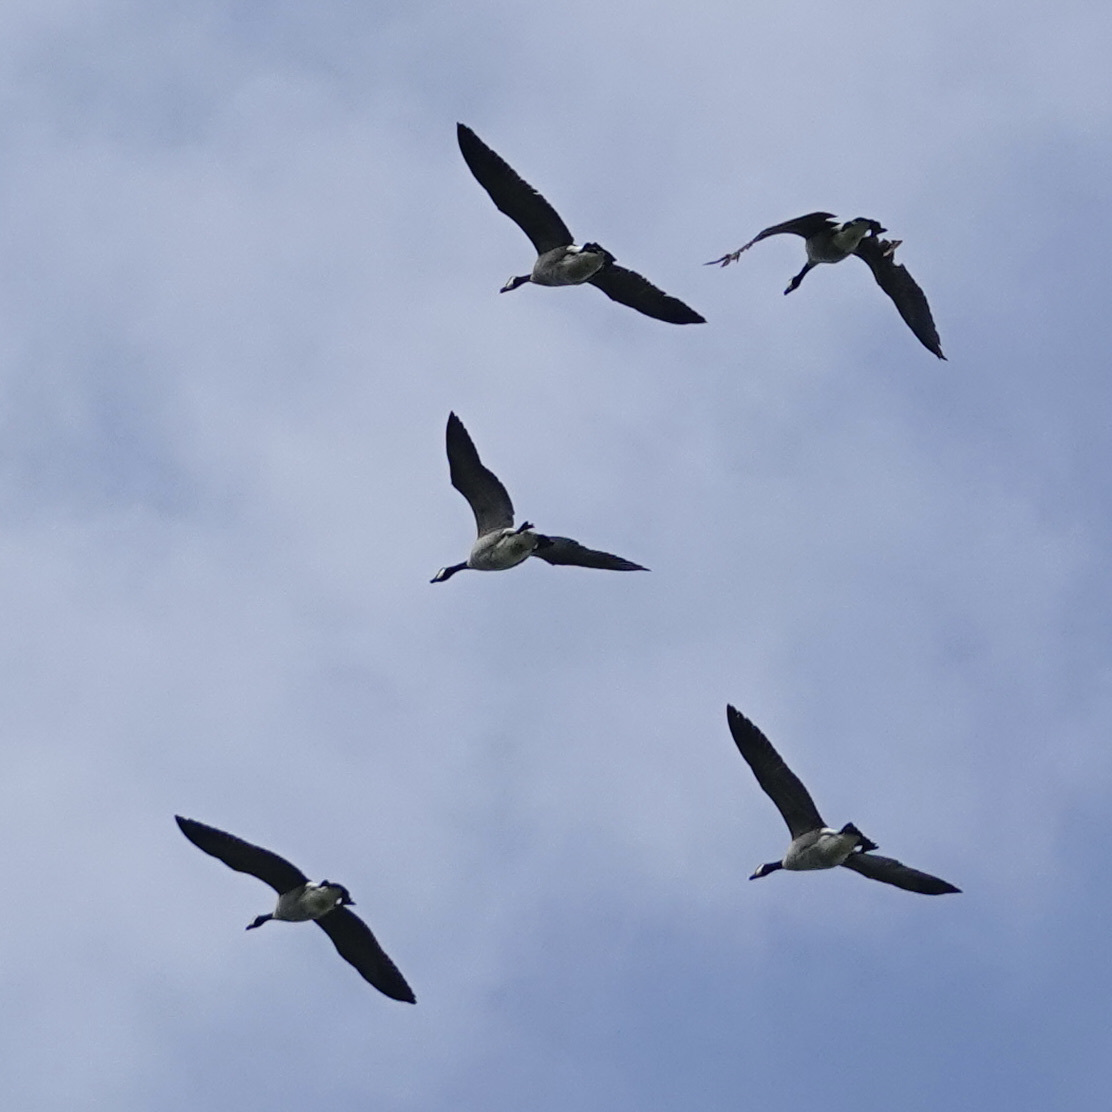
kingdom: Animalia
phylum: Chordata
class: Aves
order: Anseriformes
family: Anatidae
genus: Branta
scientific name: Branta canadensis
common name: Canada goose
